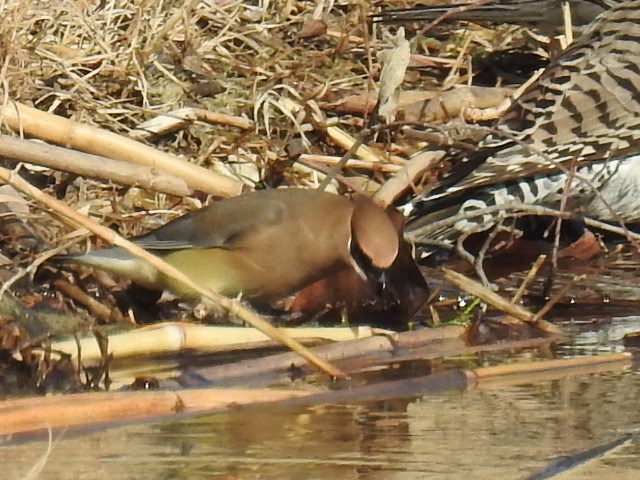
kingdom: Animalia
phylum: Chordata
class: Aves
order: Passeriformes
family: Bombycillidae
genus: Bombycilla
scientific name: Bombycilla cedrorum
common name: Cedar waxwing
